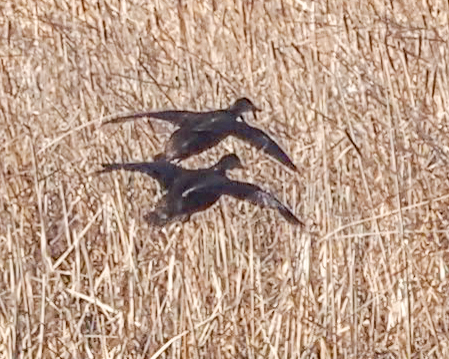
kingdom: Animalia
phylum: Chordata
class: Aves
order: Anseriformes
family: Anatidae
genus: Anas
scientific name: Anas rubripes
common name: American black duck
